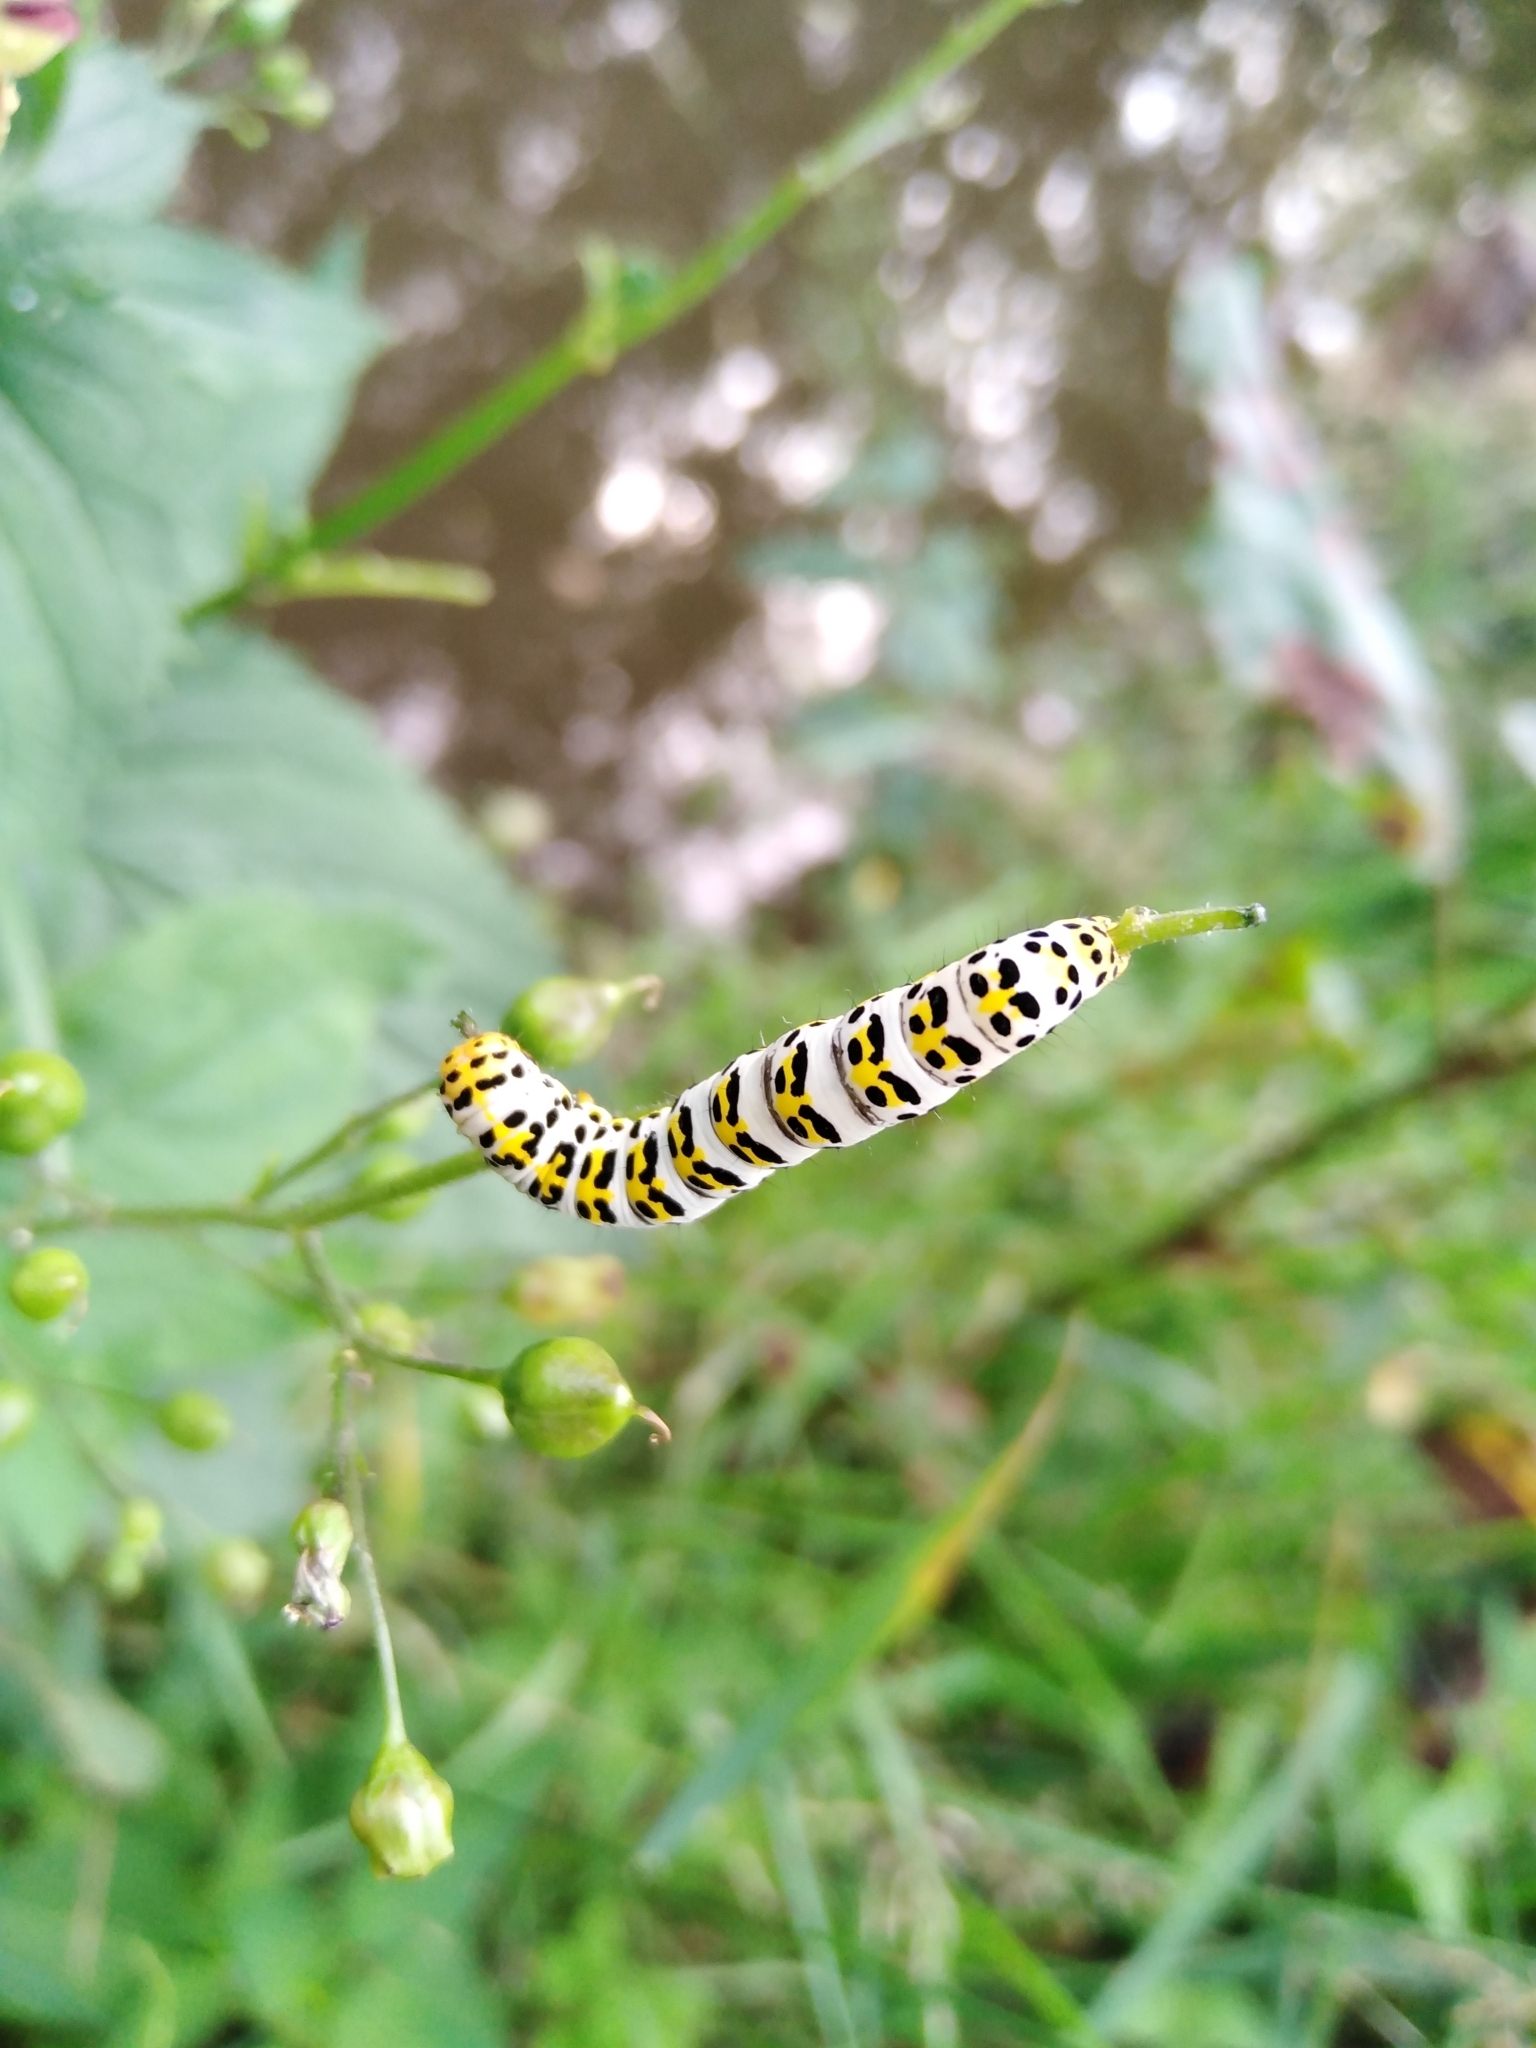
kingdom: Animalia
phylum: Arthropoda
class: Insecta
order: Lepidoptera
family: Noctuidae
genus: Shargacucullia
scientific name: Shargacucullia scrophulariae
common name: Water betony
